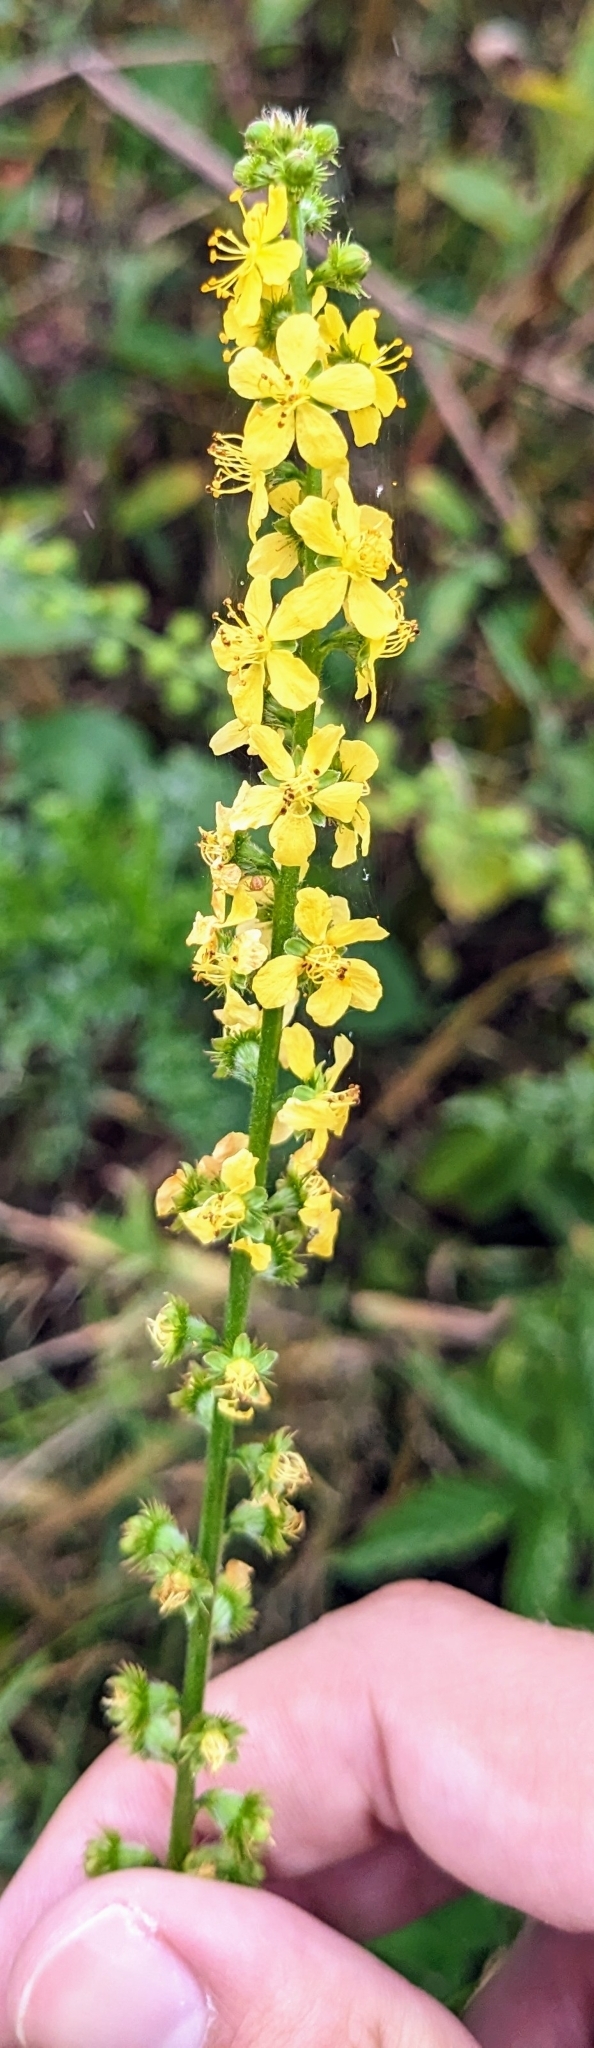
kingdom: Plantae
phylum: Tracheophyta
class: Magnoliopsida
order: Rosales
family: Rosaceae
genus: Agrimonia
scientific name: Agrimonia eupatoria
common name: Agrimony
